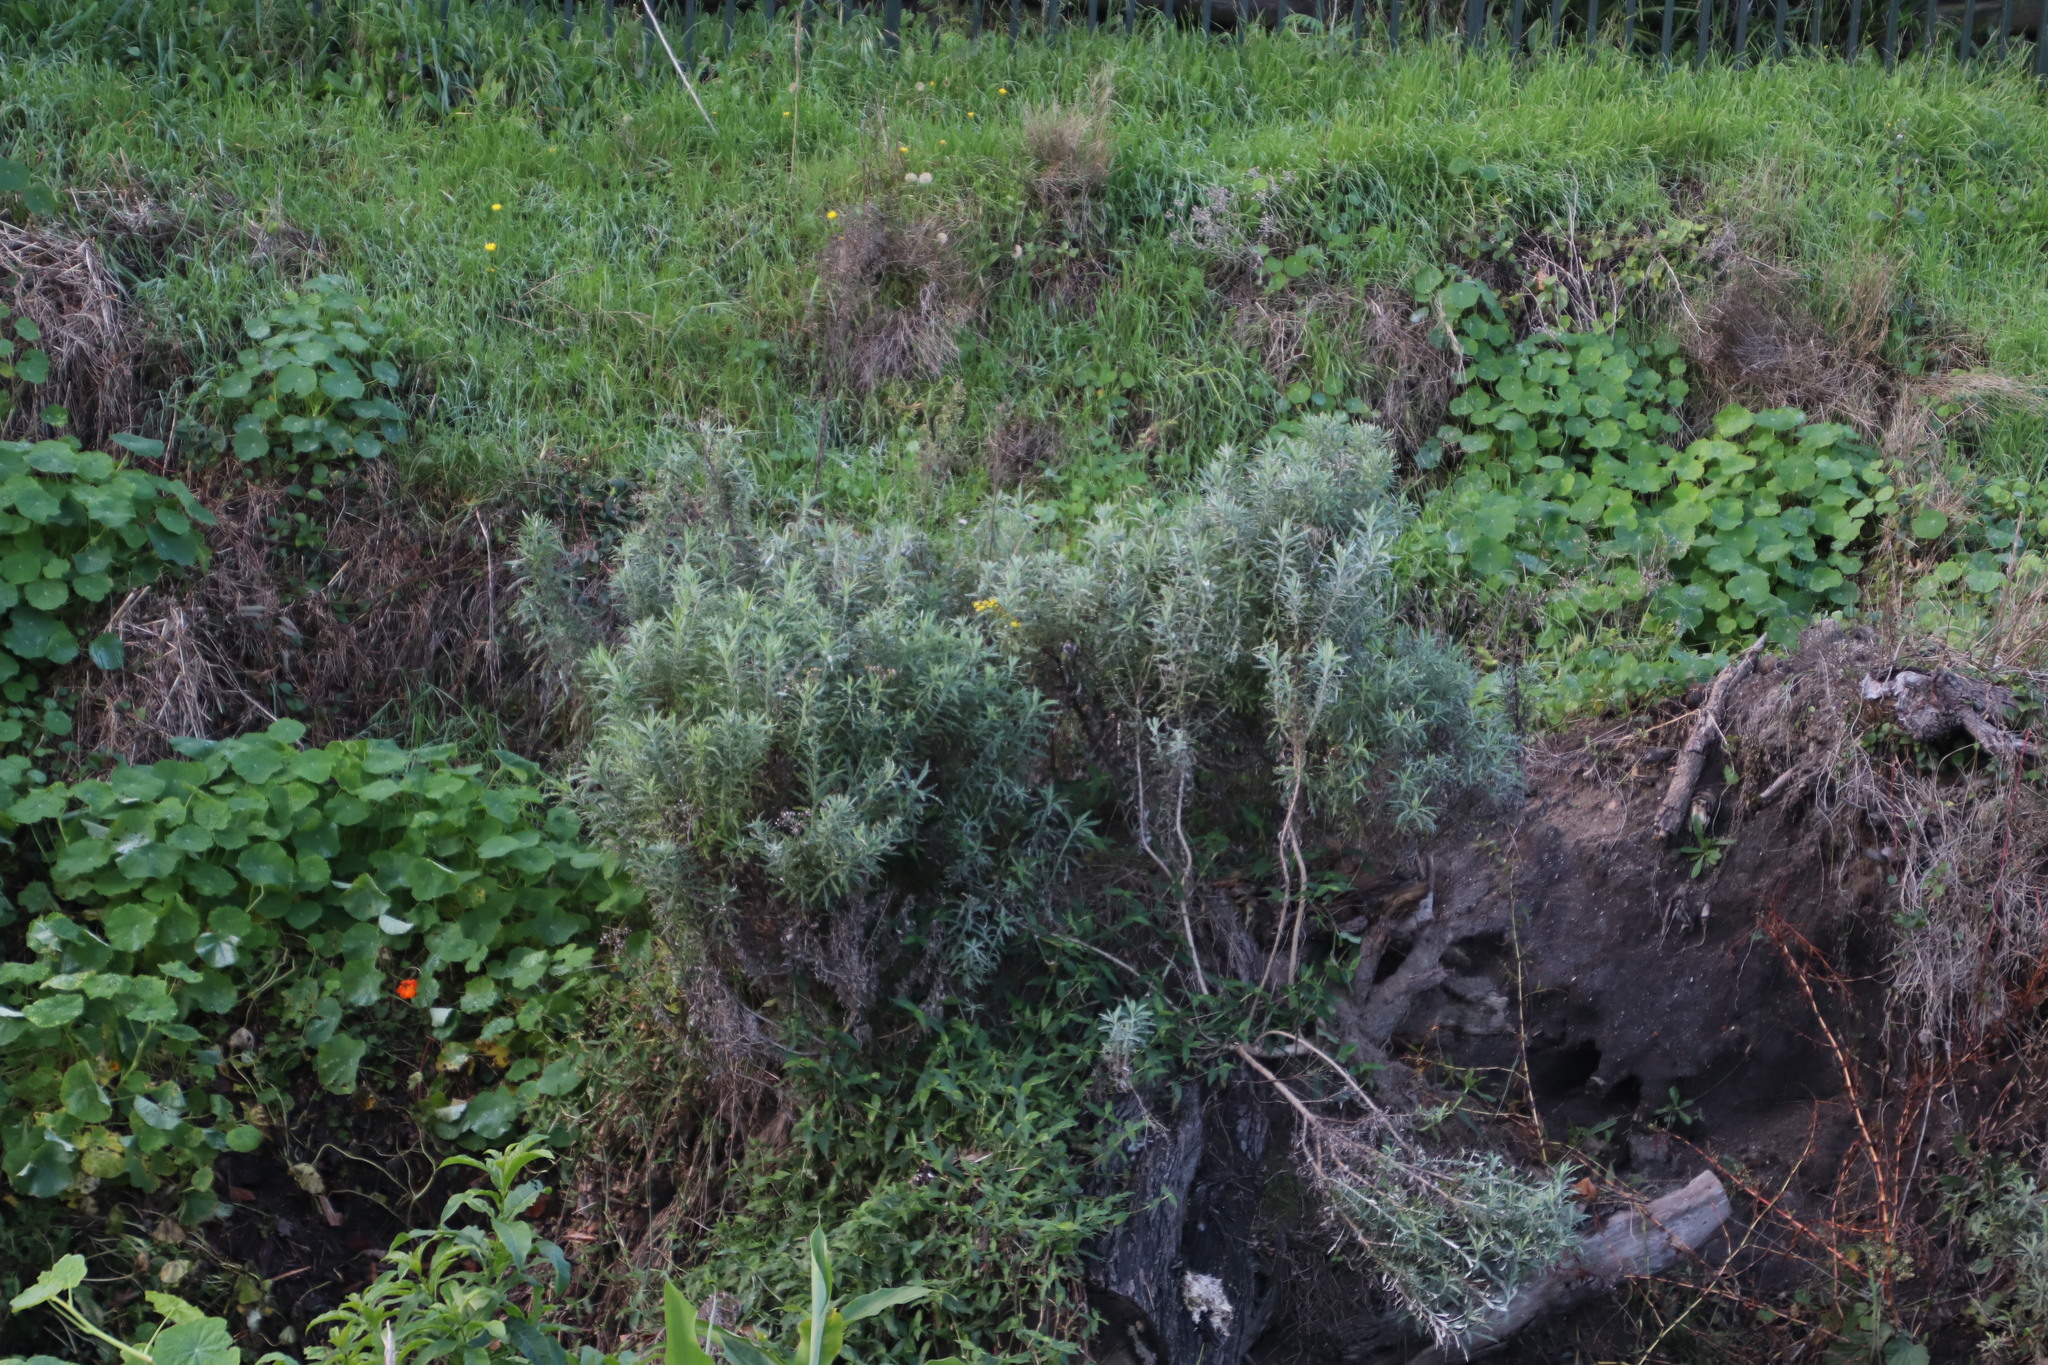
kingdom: Plantae
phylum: Tracheophyta
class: Magnoliopsida
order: Asterales
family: Asteraceae
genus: Senecio
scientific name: Senecio pterophorus
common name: Shoddy ragwort
